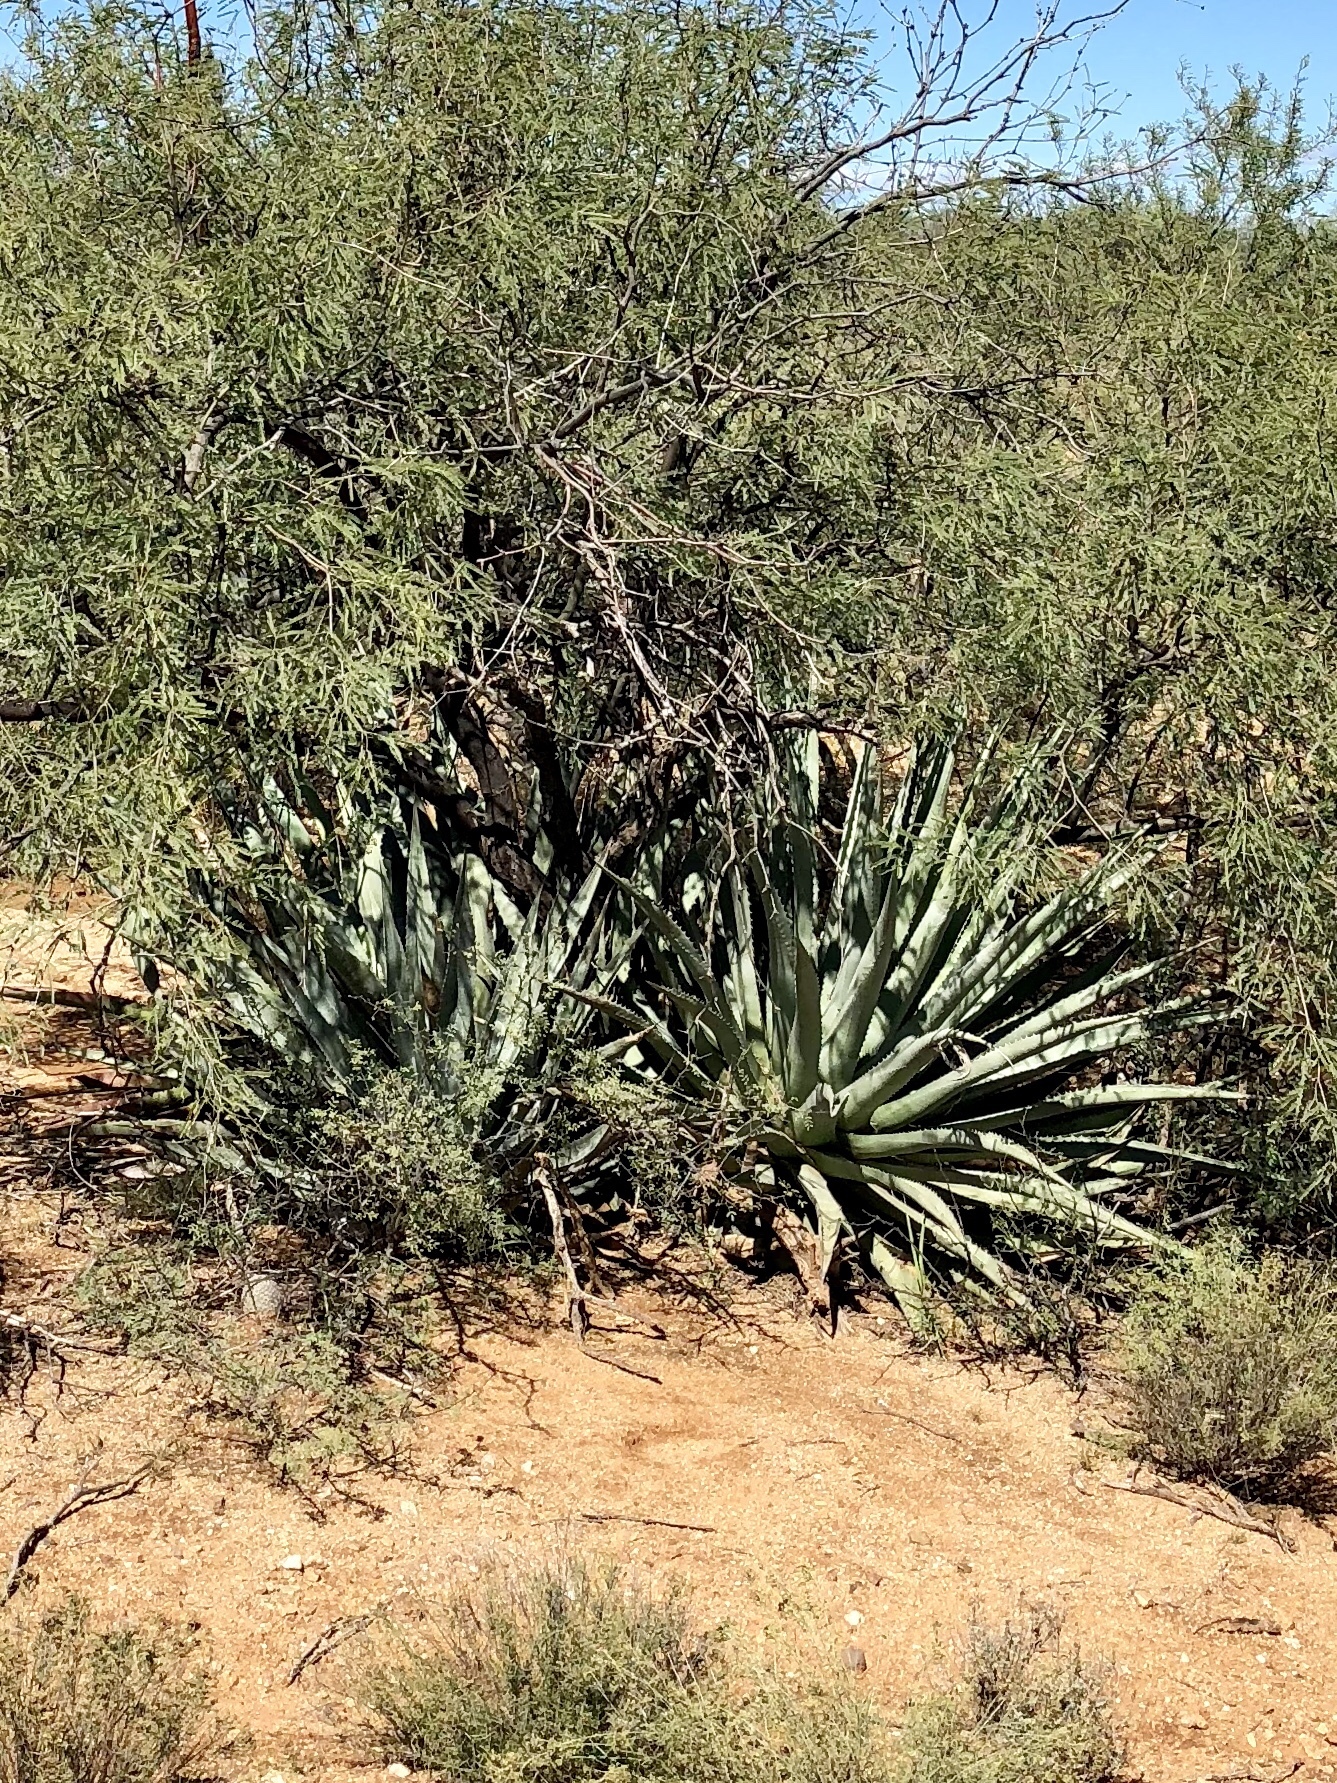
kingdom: Plantae
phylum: Tracheophyta
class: Liliopsida
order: Asparagales
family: Asparagaceae
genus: Agave
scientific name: Agave palmeri
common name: Palmer agave
